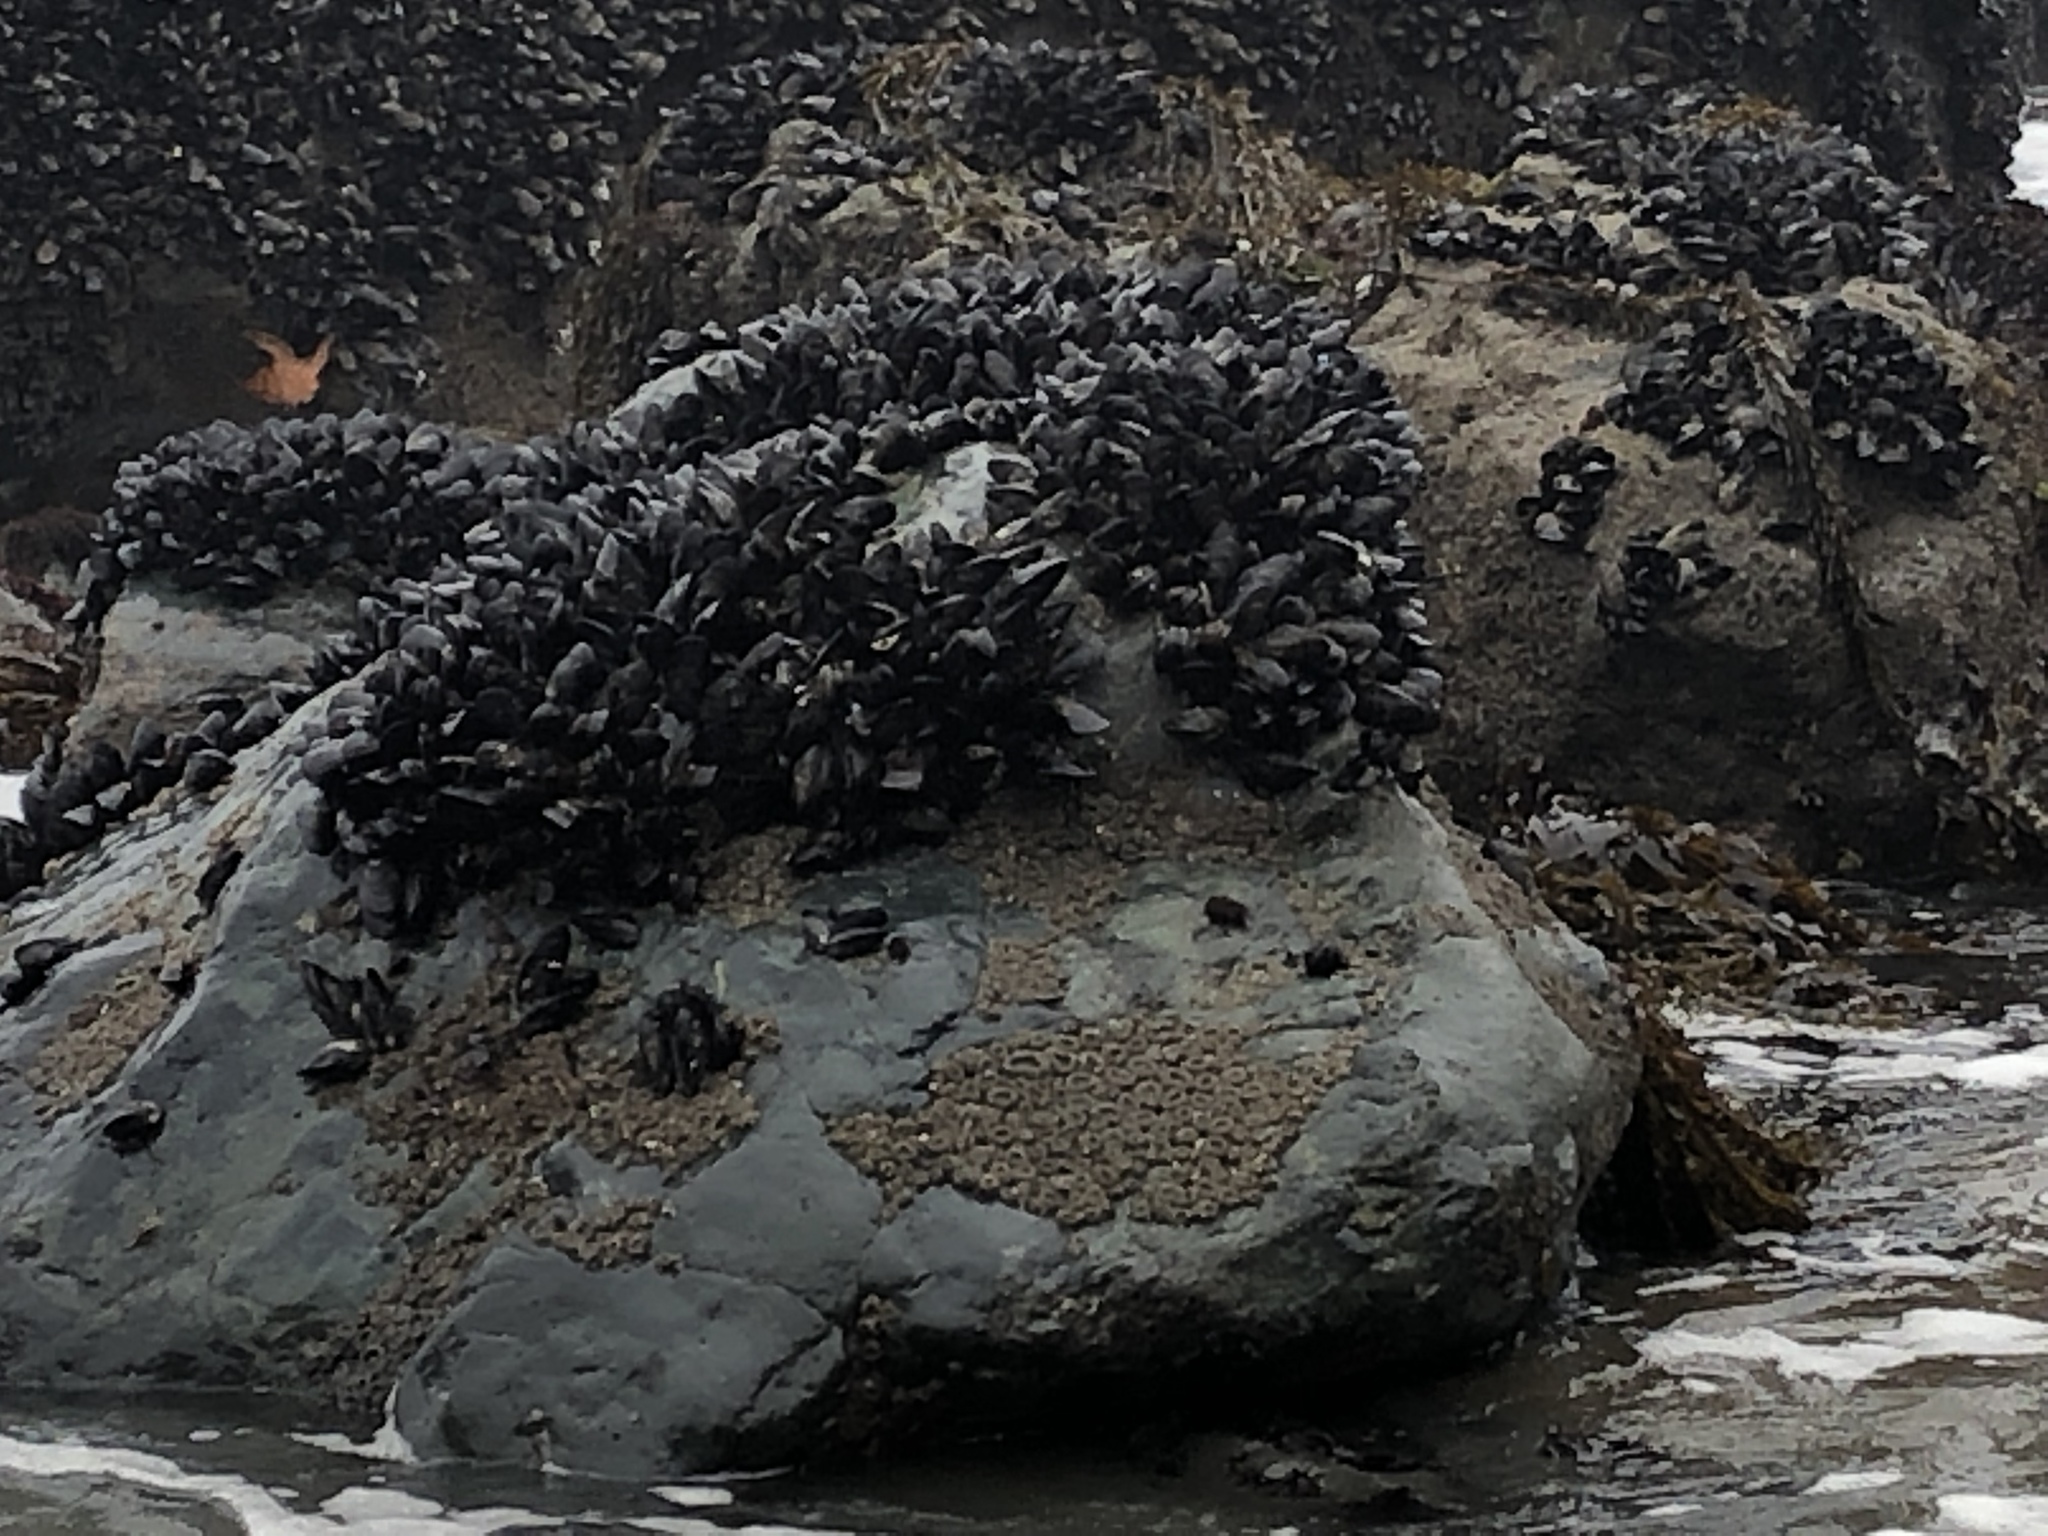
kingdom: Animalia
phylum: Mollusca
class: Bivalvia
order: Mytilida
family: Mytilidae
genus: Mytilus
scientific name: Mytilus californianus
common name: California mussel
